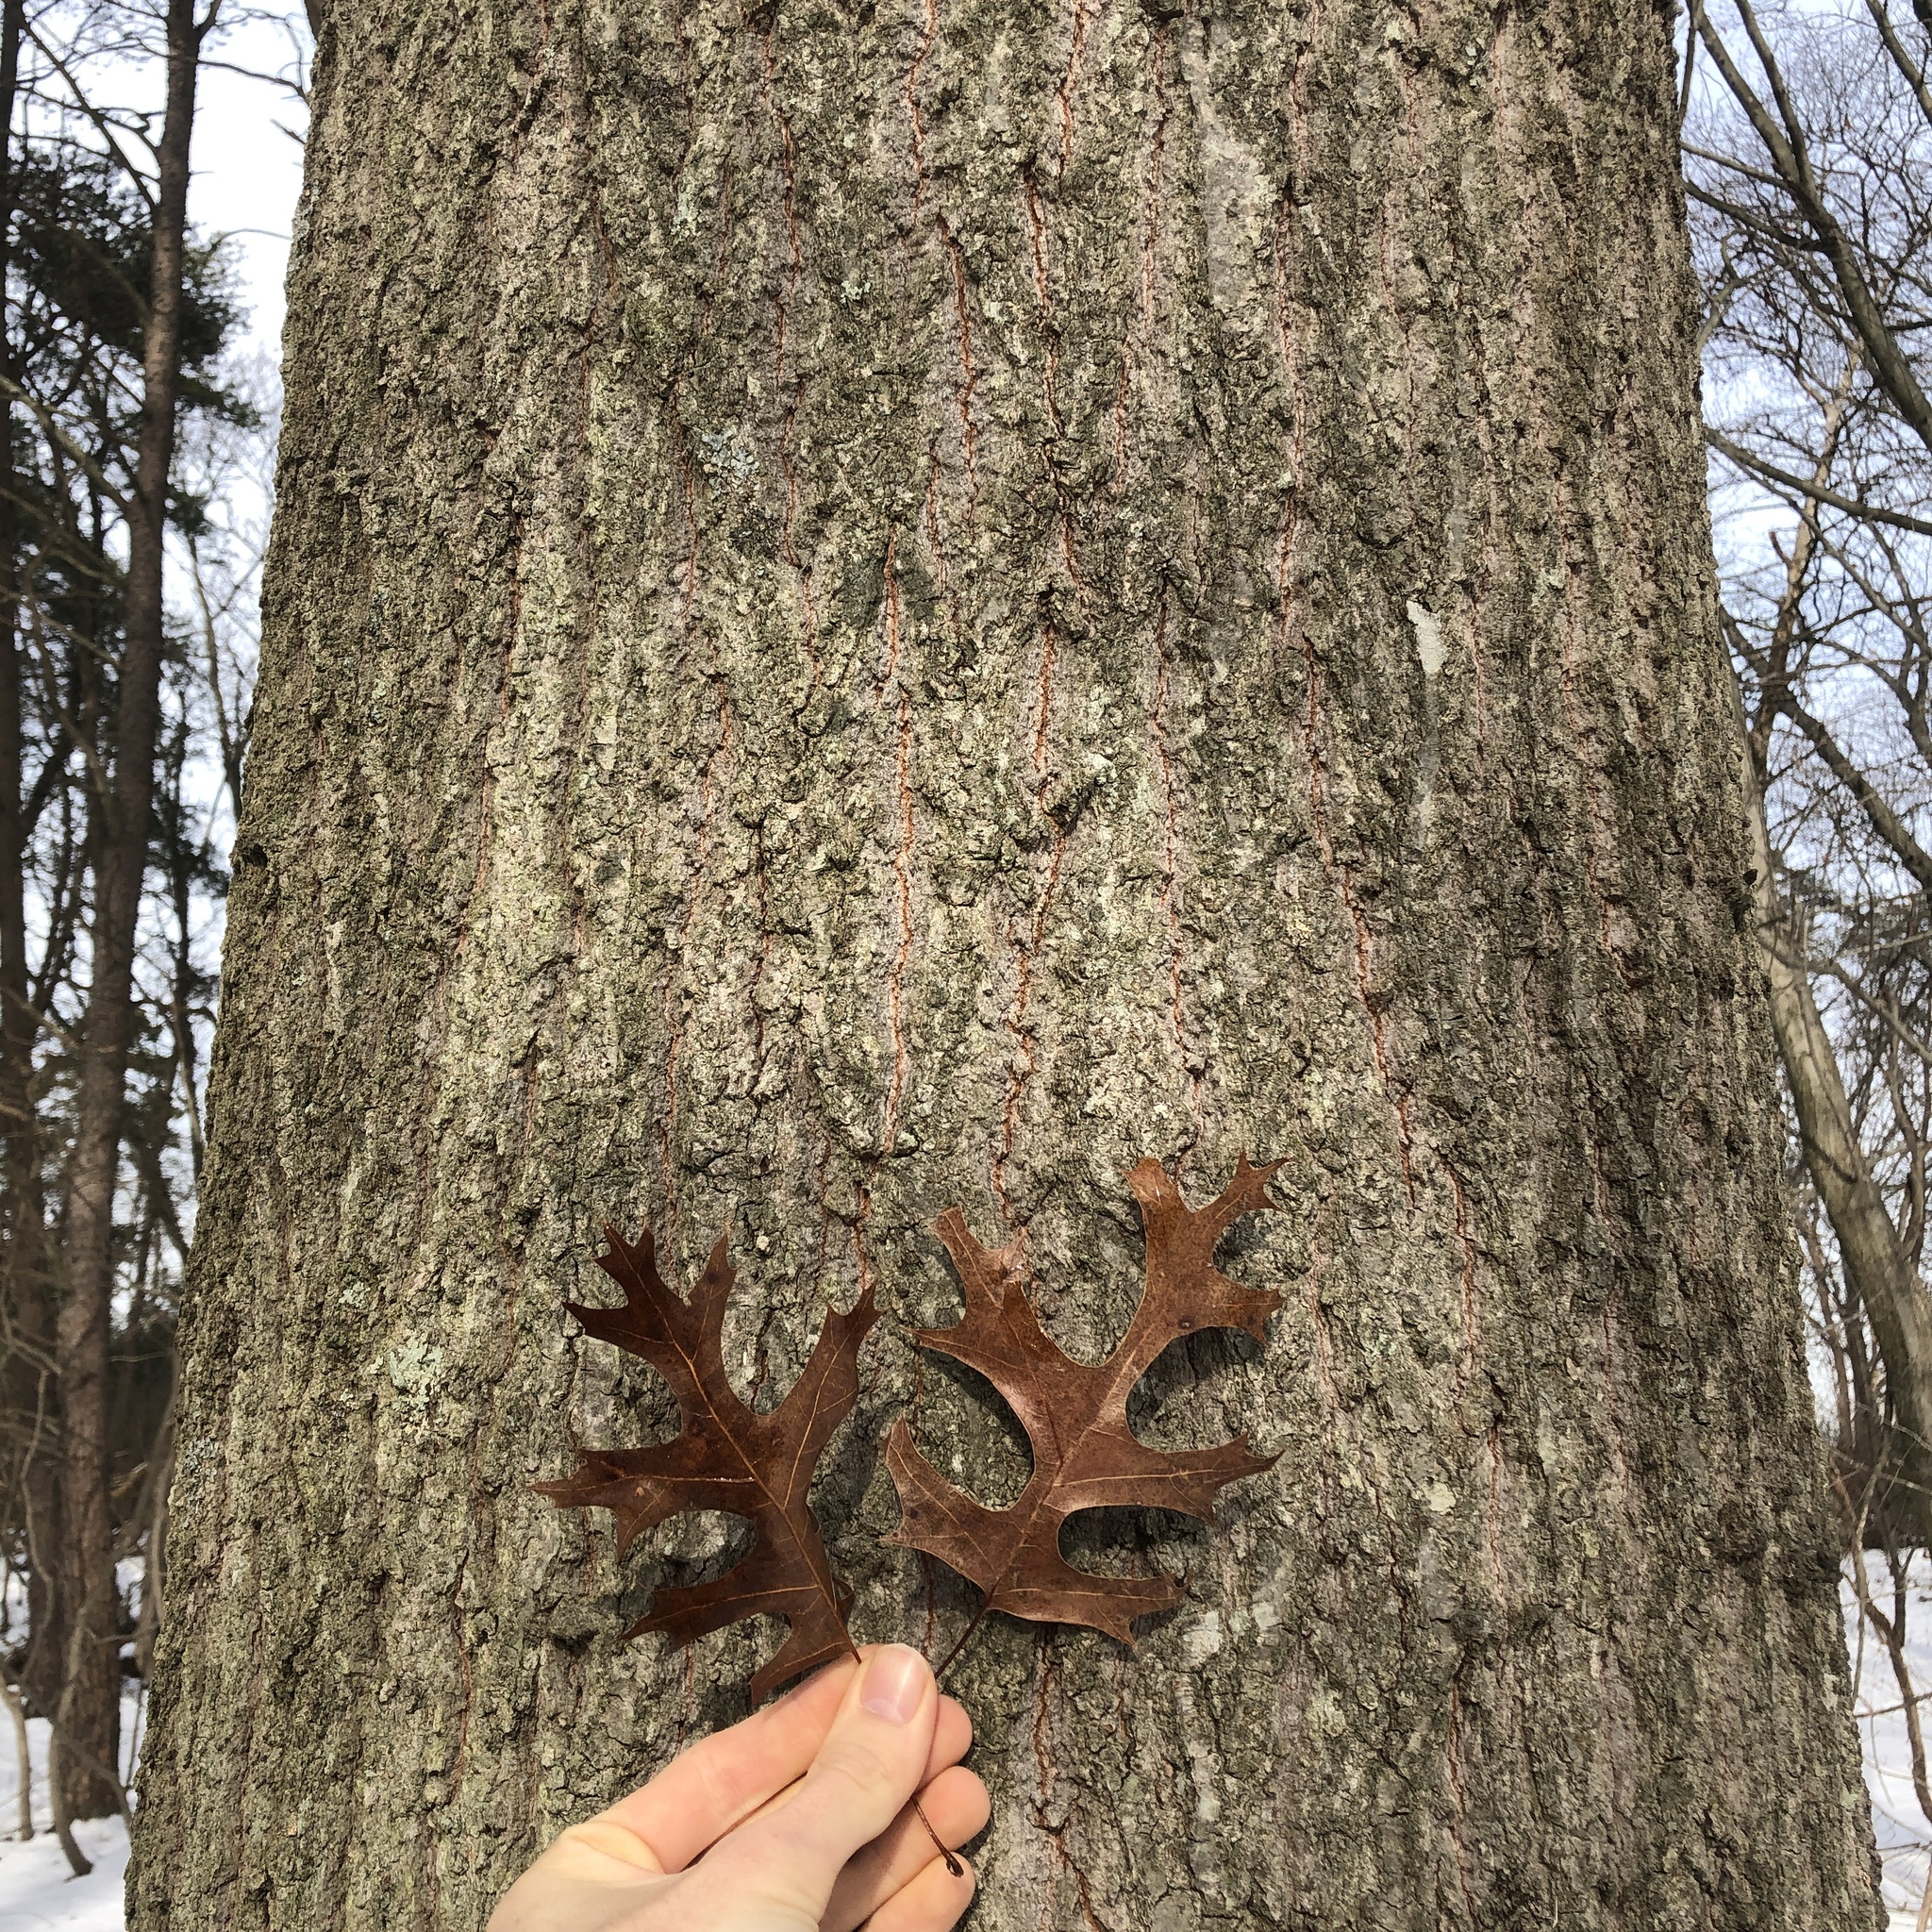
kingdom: Plantae
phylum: Tracheophyta
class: Magnoliopsida
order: Fagales
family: Fagaceae
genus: Quercus
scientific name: Quercus coccinea
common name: Scarlet oak
